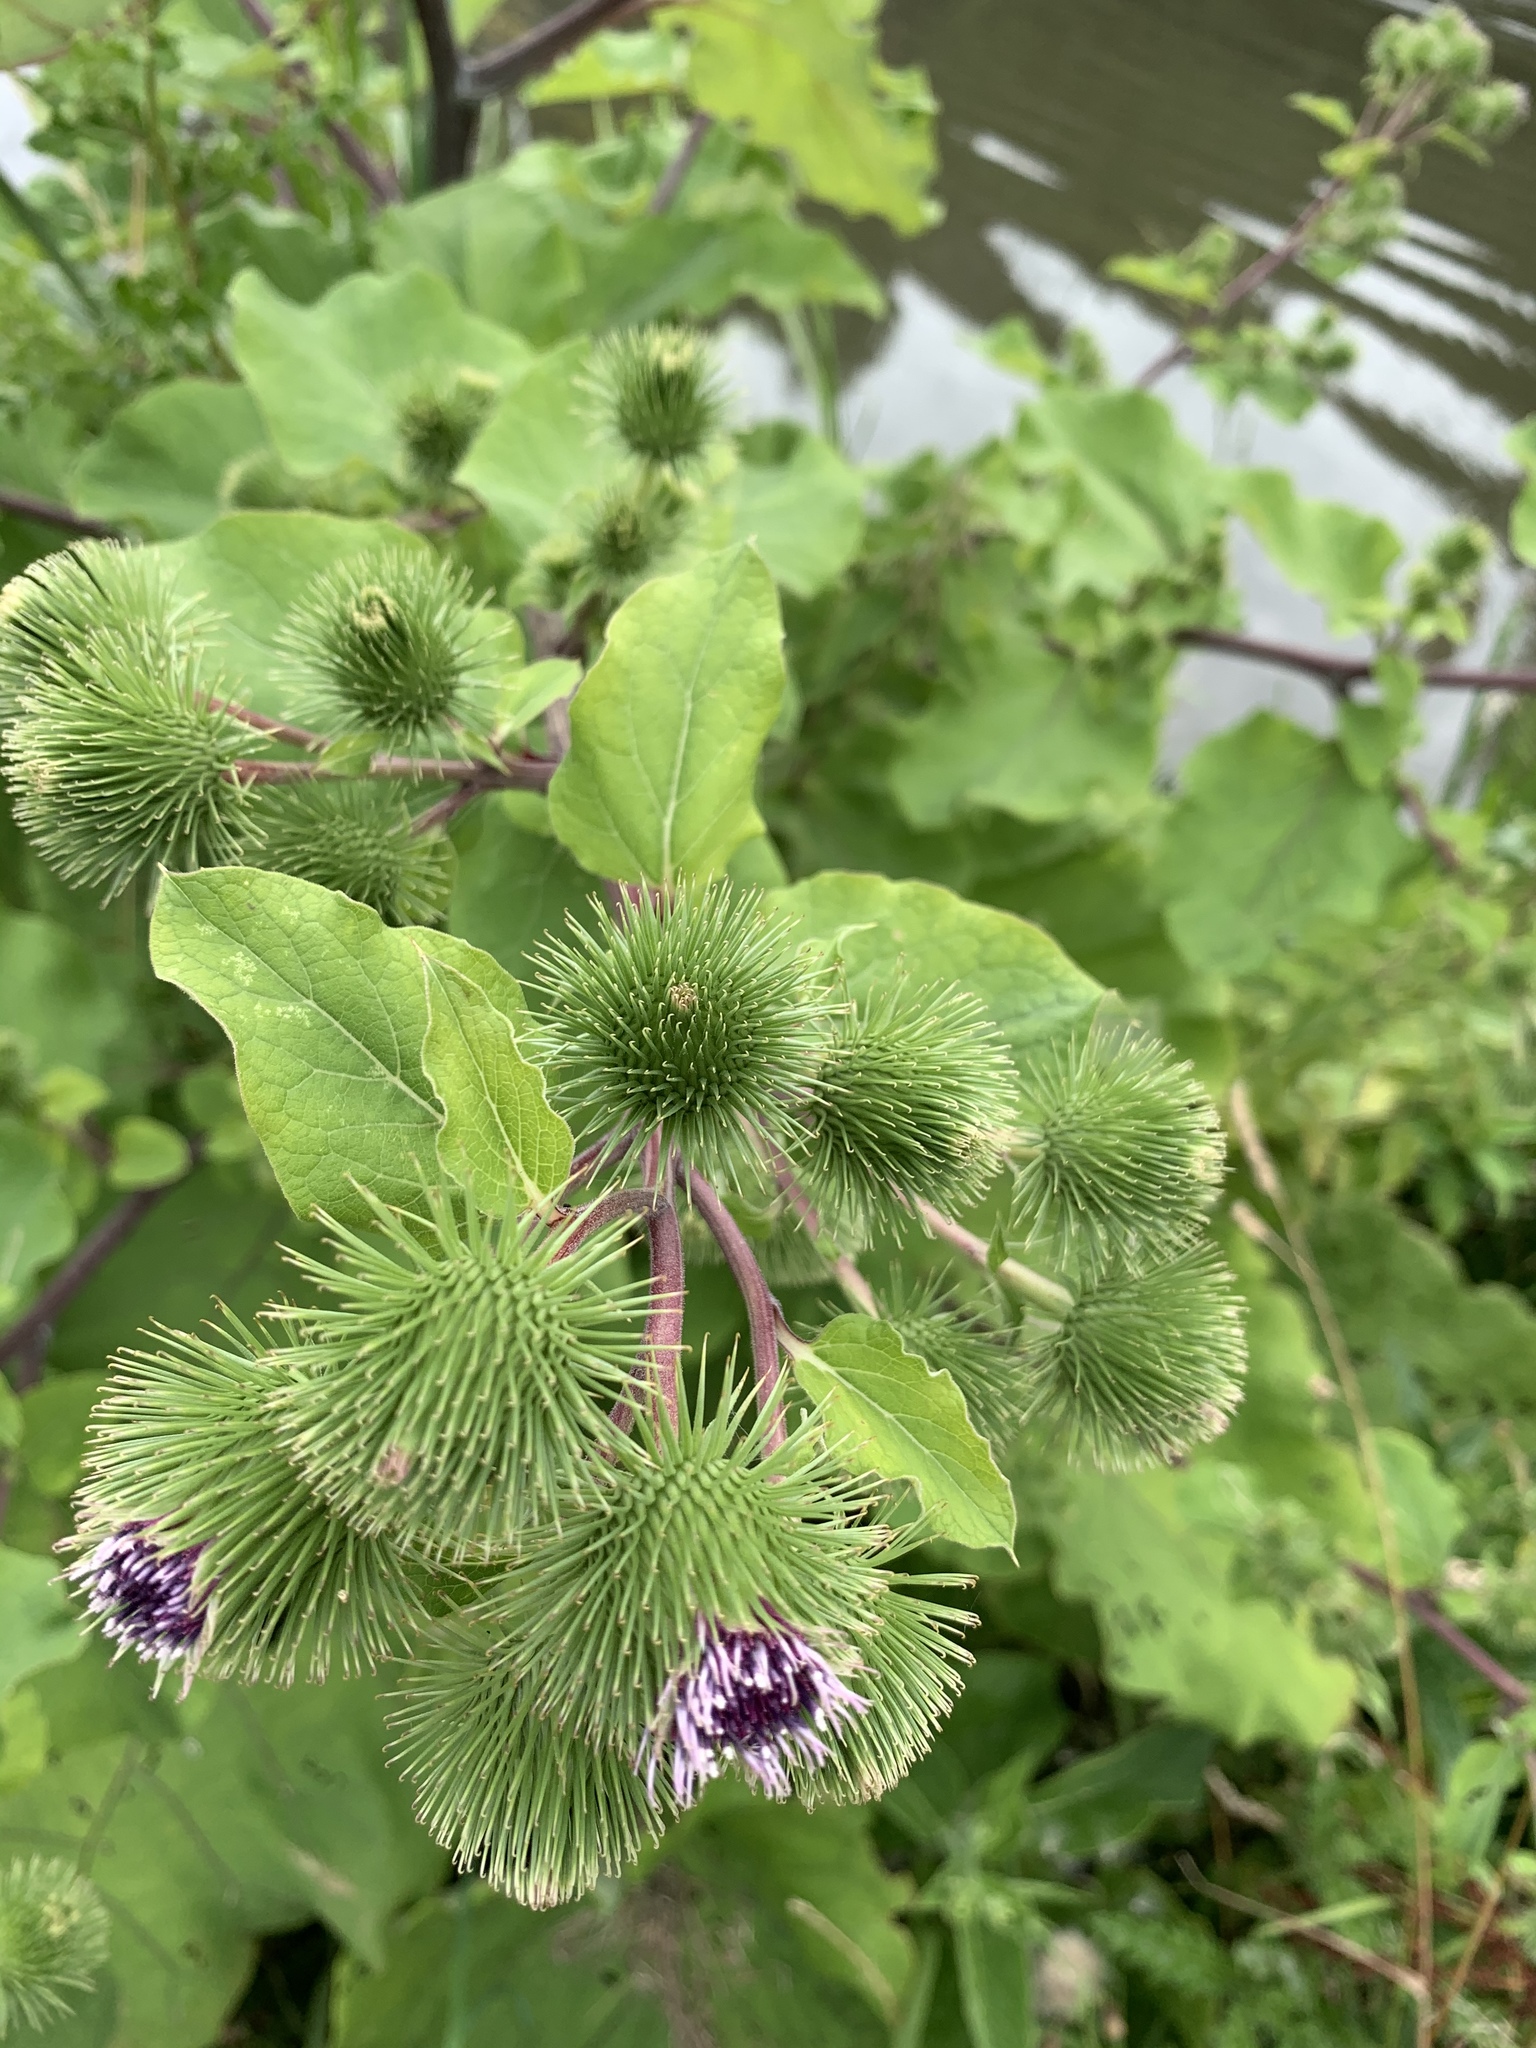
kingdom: Plantae
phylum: Tracheophyta
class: Magnoliopsida
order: Asterales
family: Asteraceae
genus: Arctium
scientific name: Arctium minus
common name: Lesser burdock
